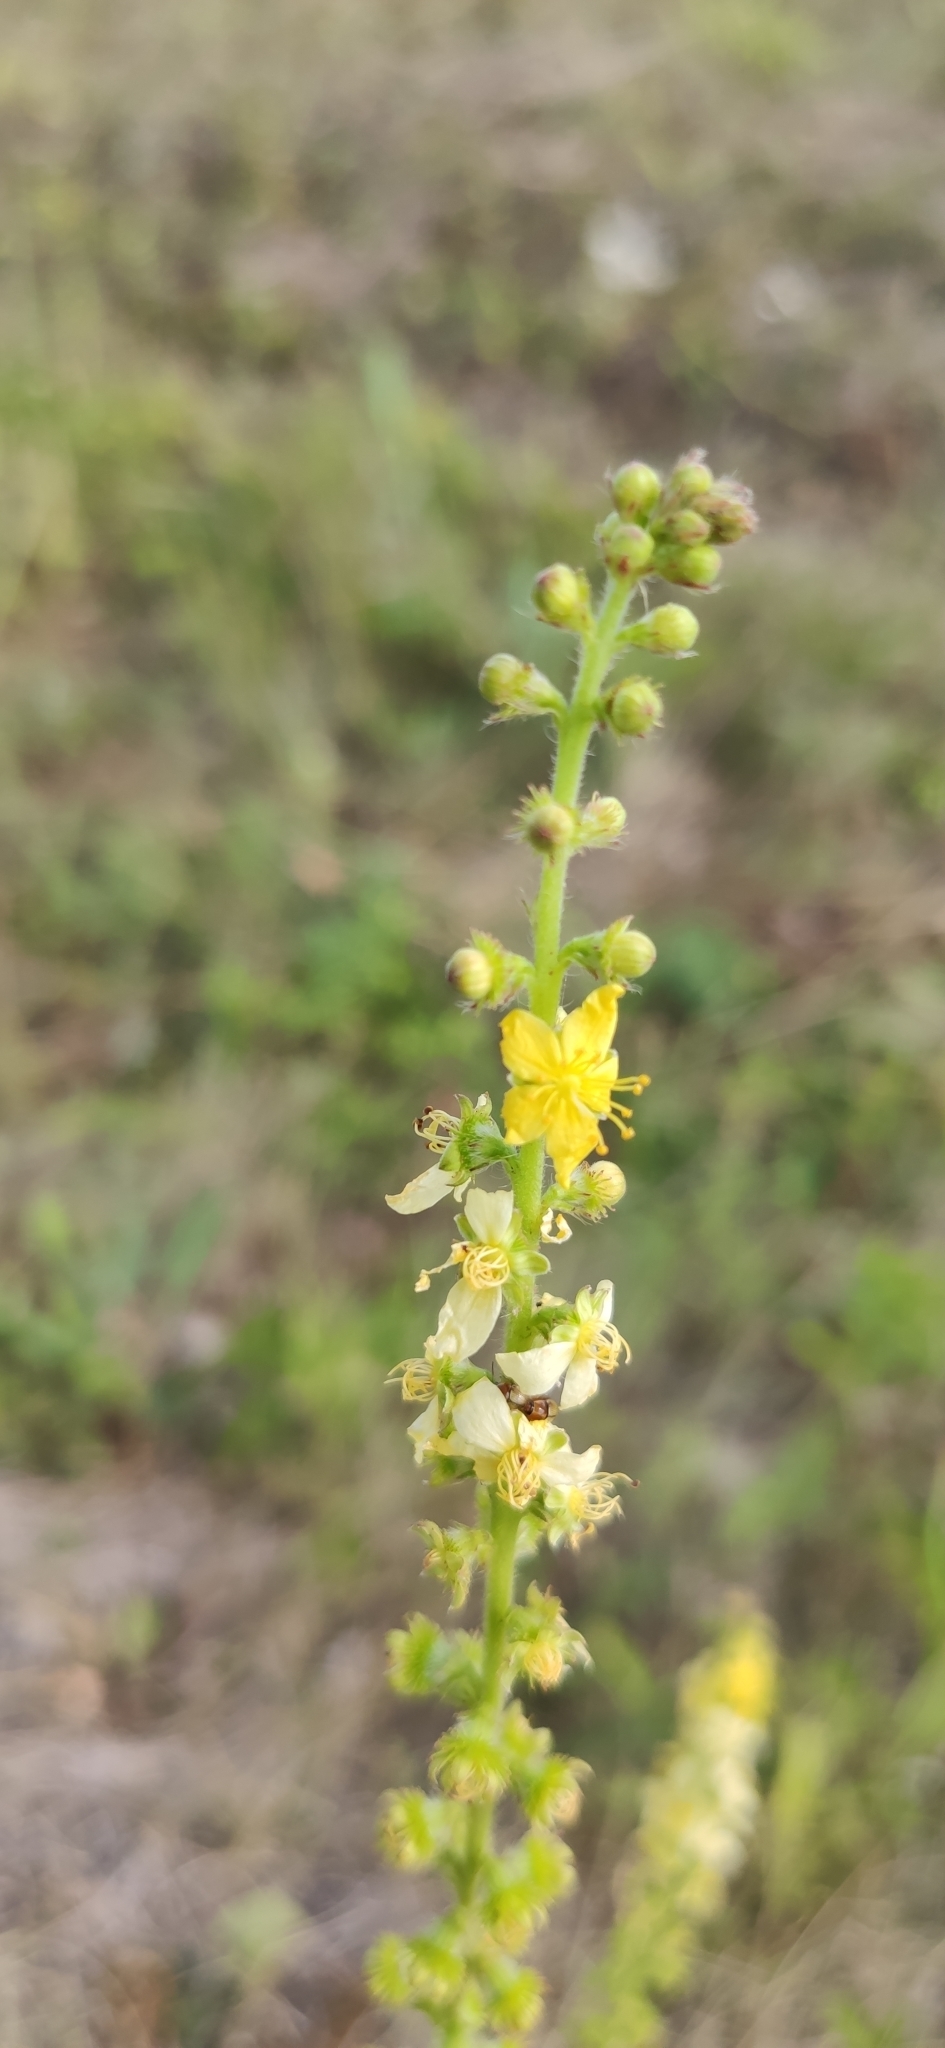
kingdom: Plantae
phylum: Tracheophyta
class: Magnoliopsida
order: Rosales
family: Rosaceae
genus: Agrimonia
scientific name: Agrimonia eupatoria
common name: Agrimony
